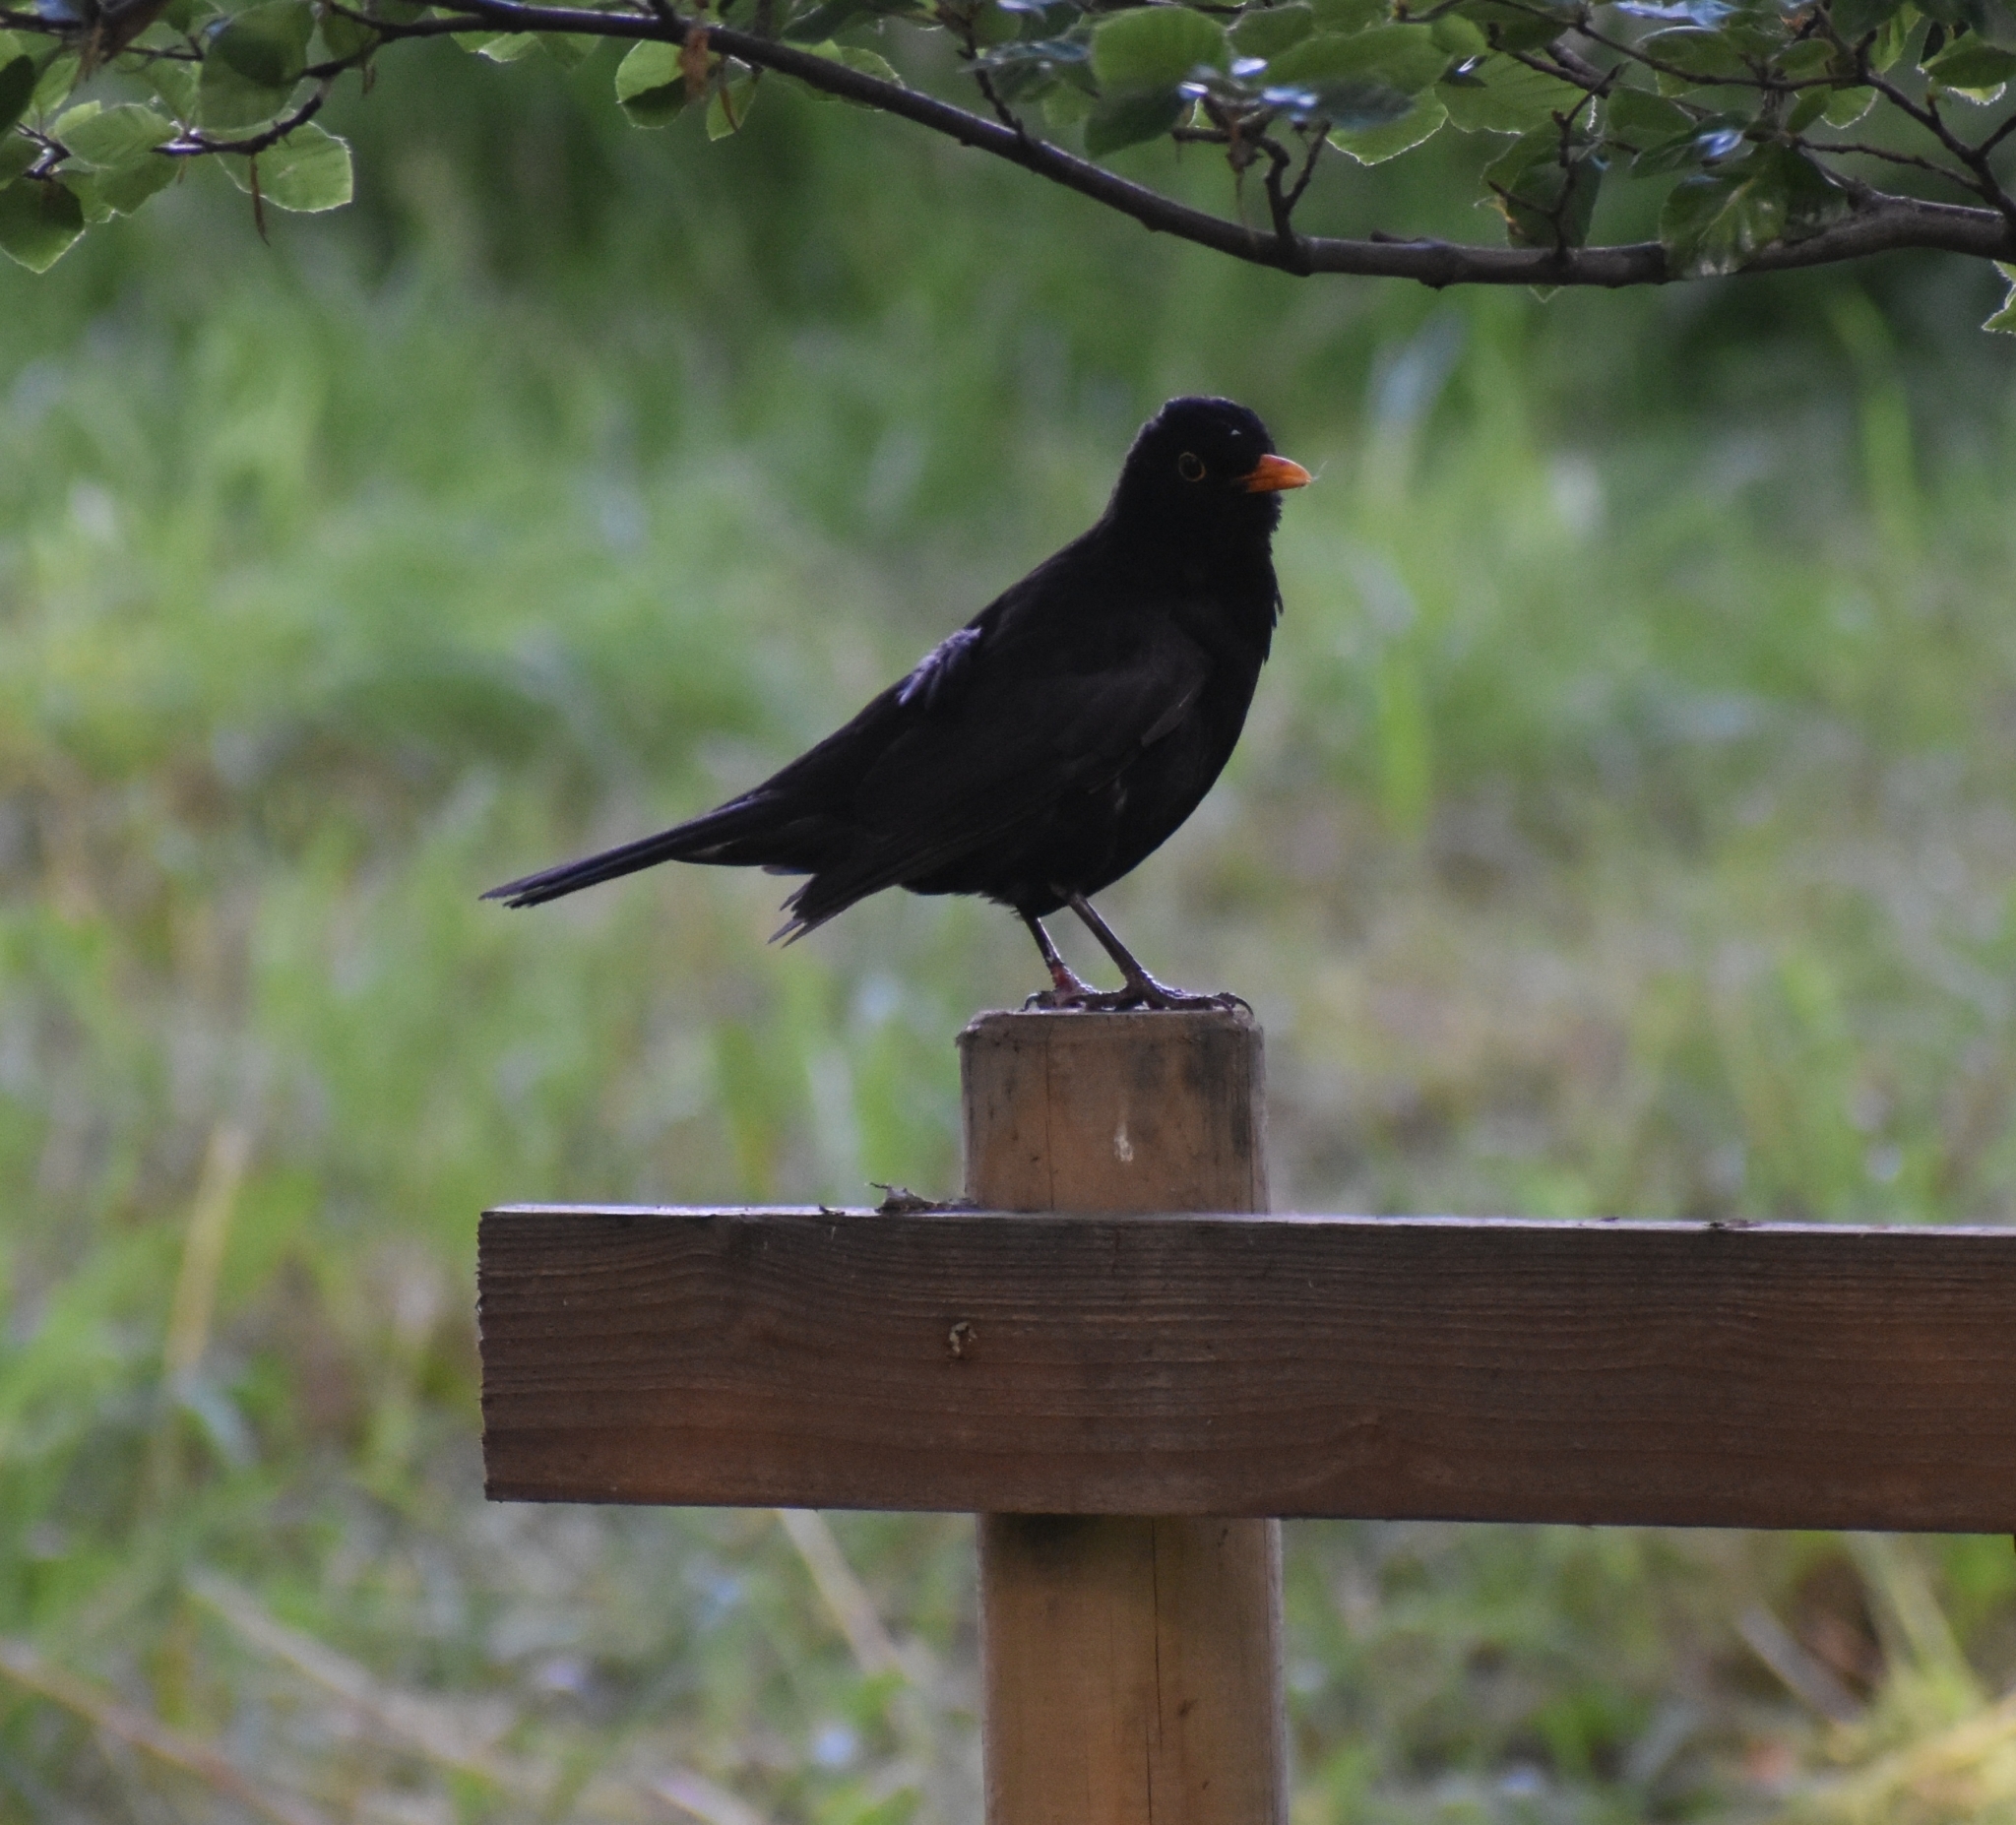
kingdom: Animalia
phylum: Chordata
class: Aves
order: Passeriformes
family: Turdidae
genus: Turdus
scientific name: Turdus merula
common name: Common blackbird
